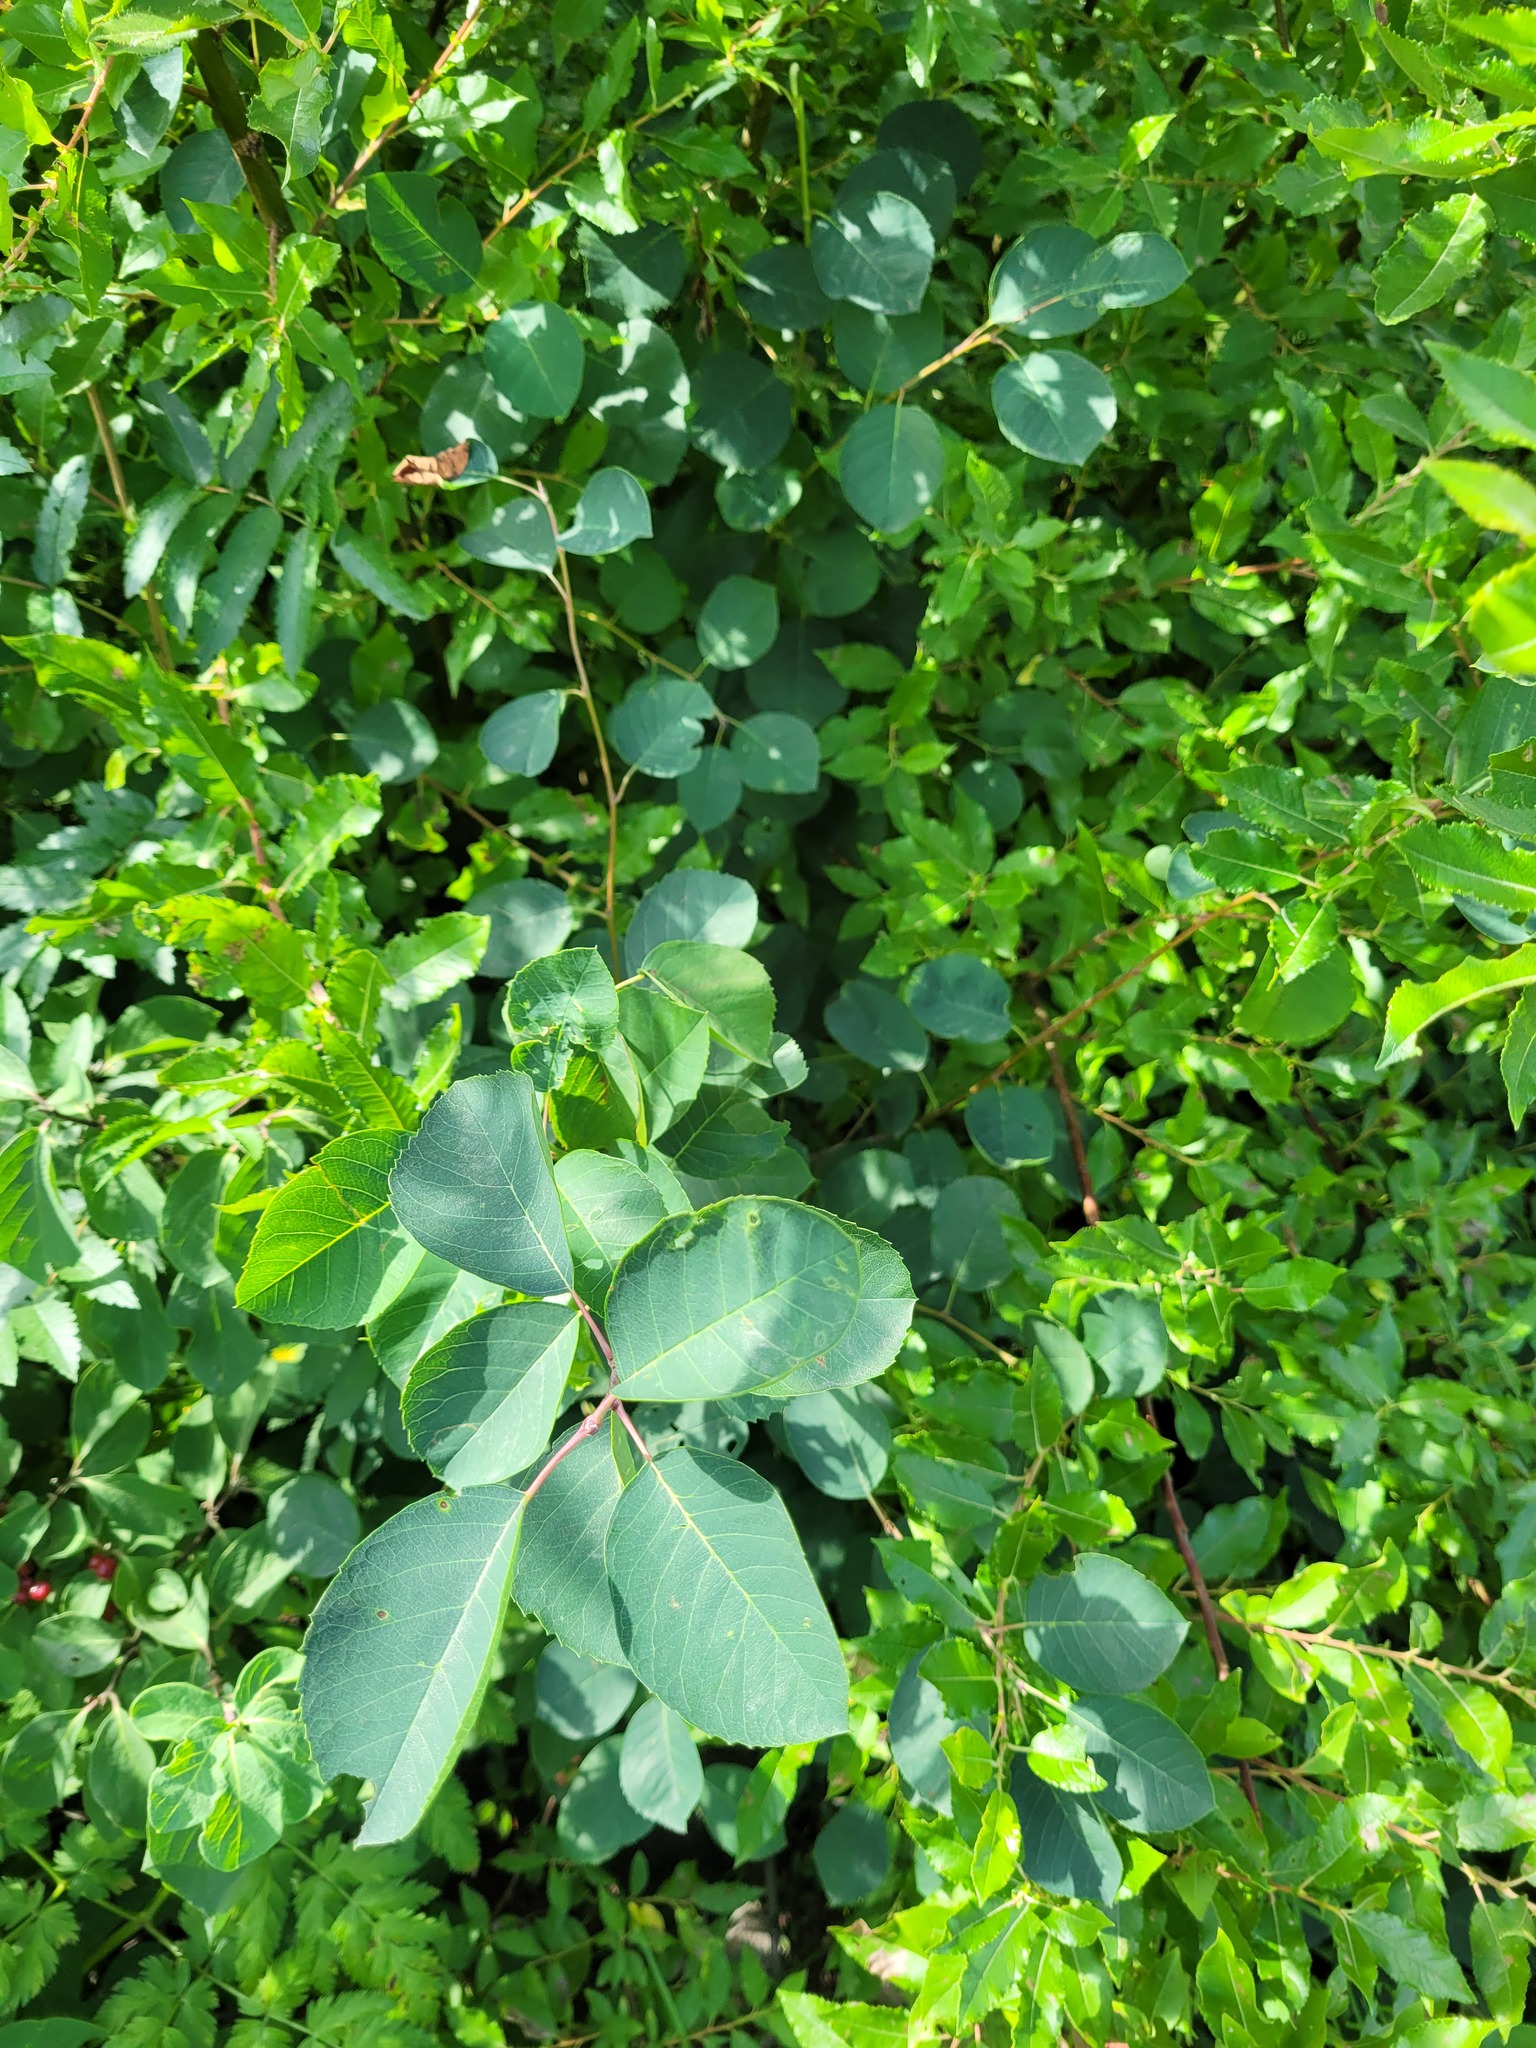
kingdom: Plantae
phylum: Tracheophyta
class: Magnoliopsida
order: Rosales
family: Rosaceae
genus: Amelanchier
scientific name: Amelanchier
